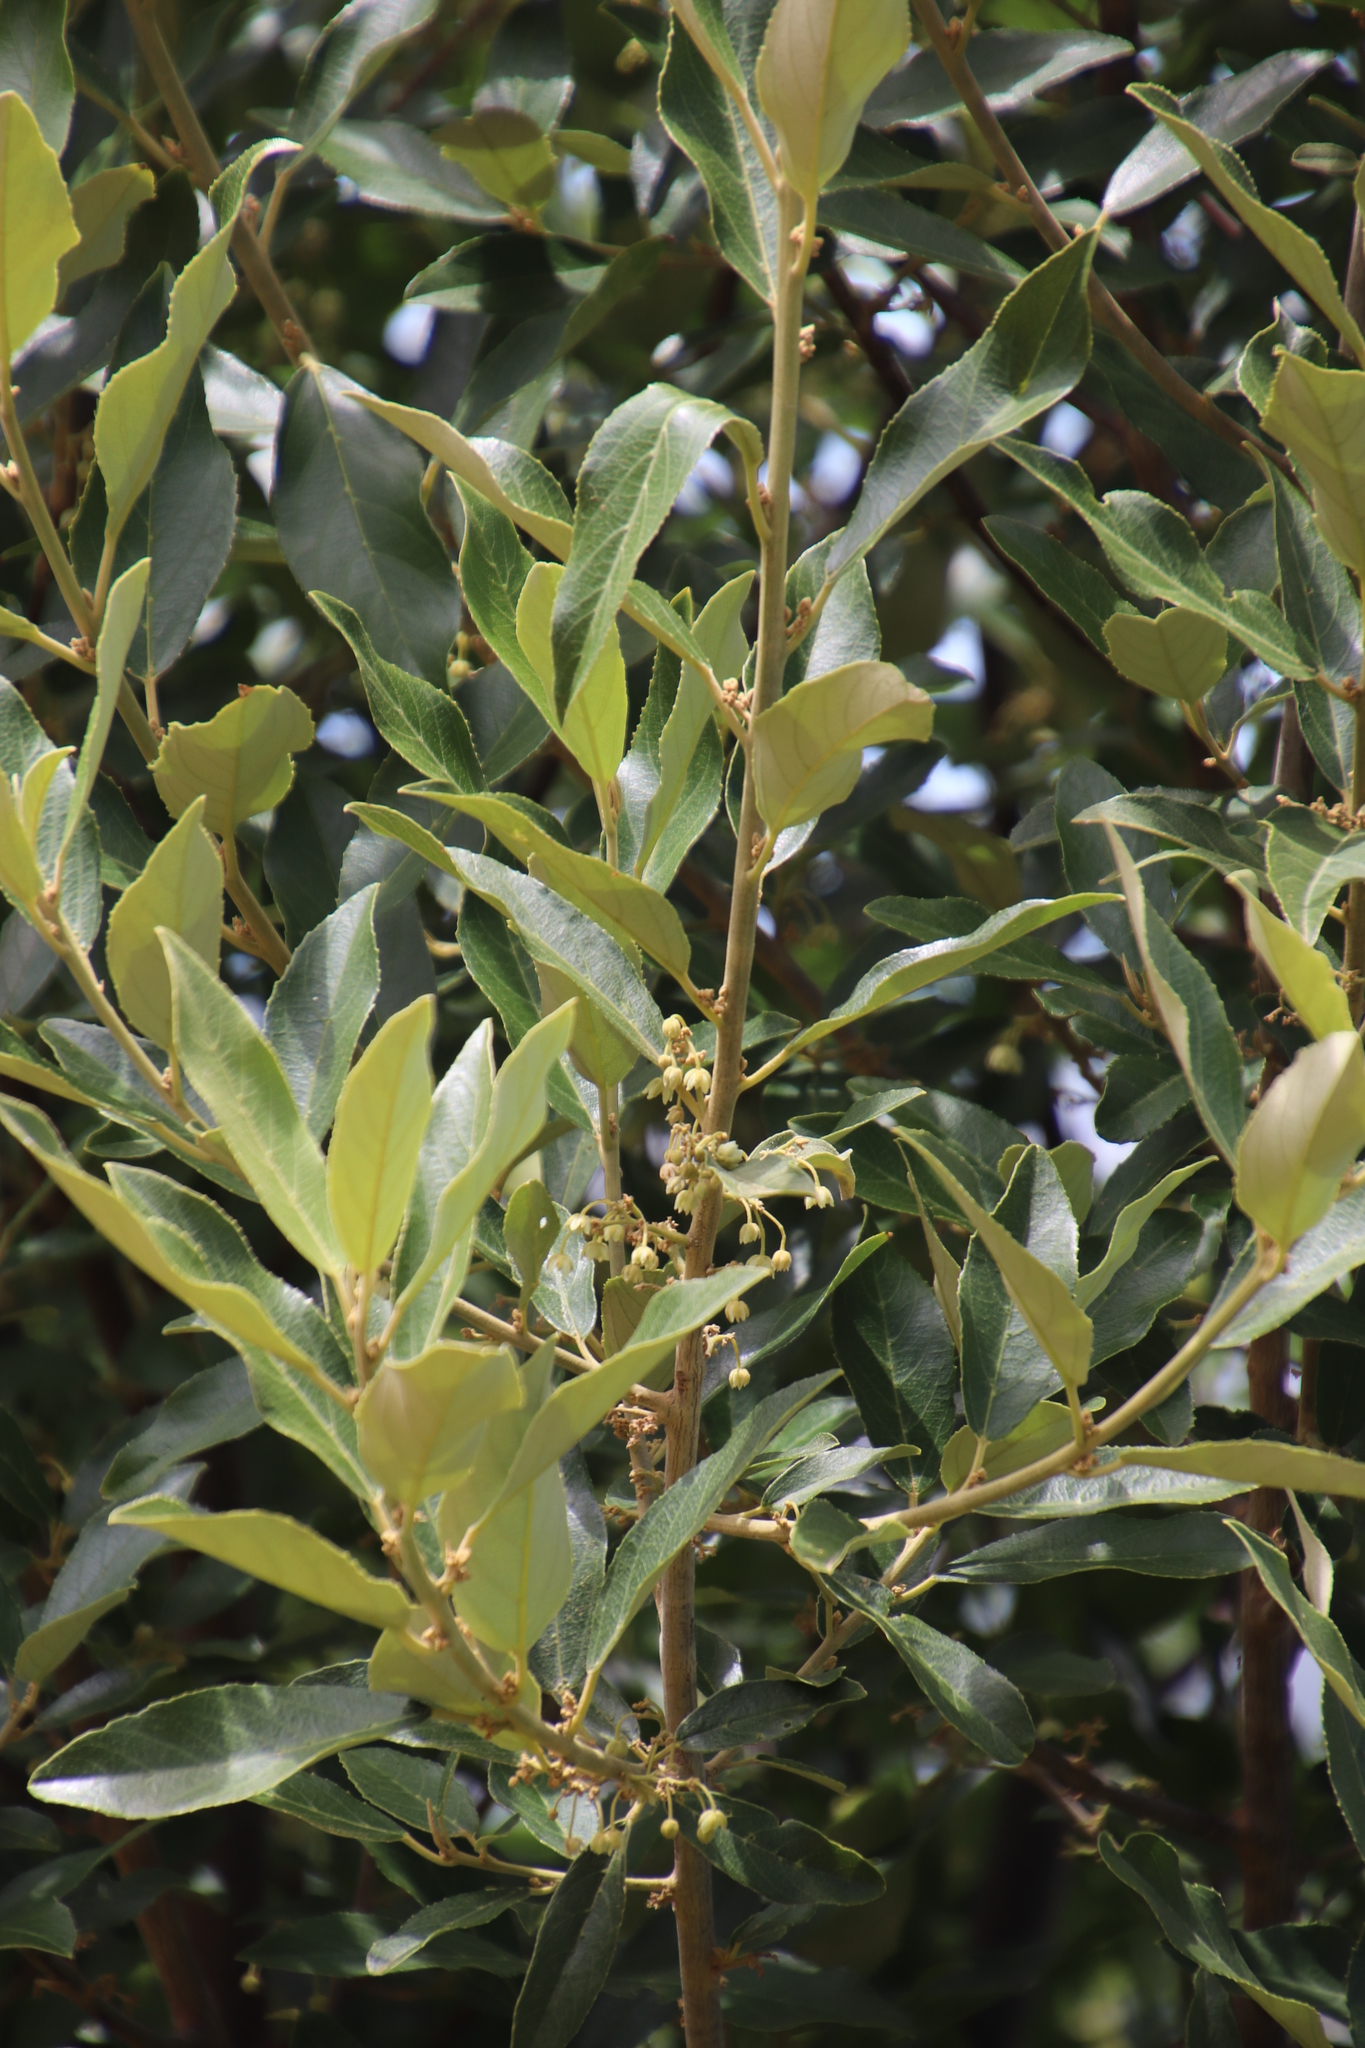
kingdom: Plantae
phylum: Tracheophyta
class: Magnoliopsida
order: Malpighiales
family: Achariaceae
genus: Kiggelaria
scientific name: Kiggelaria africana
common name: Wild peach
